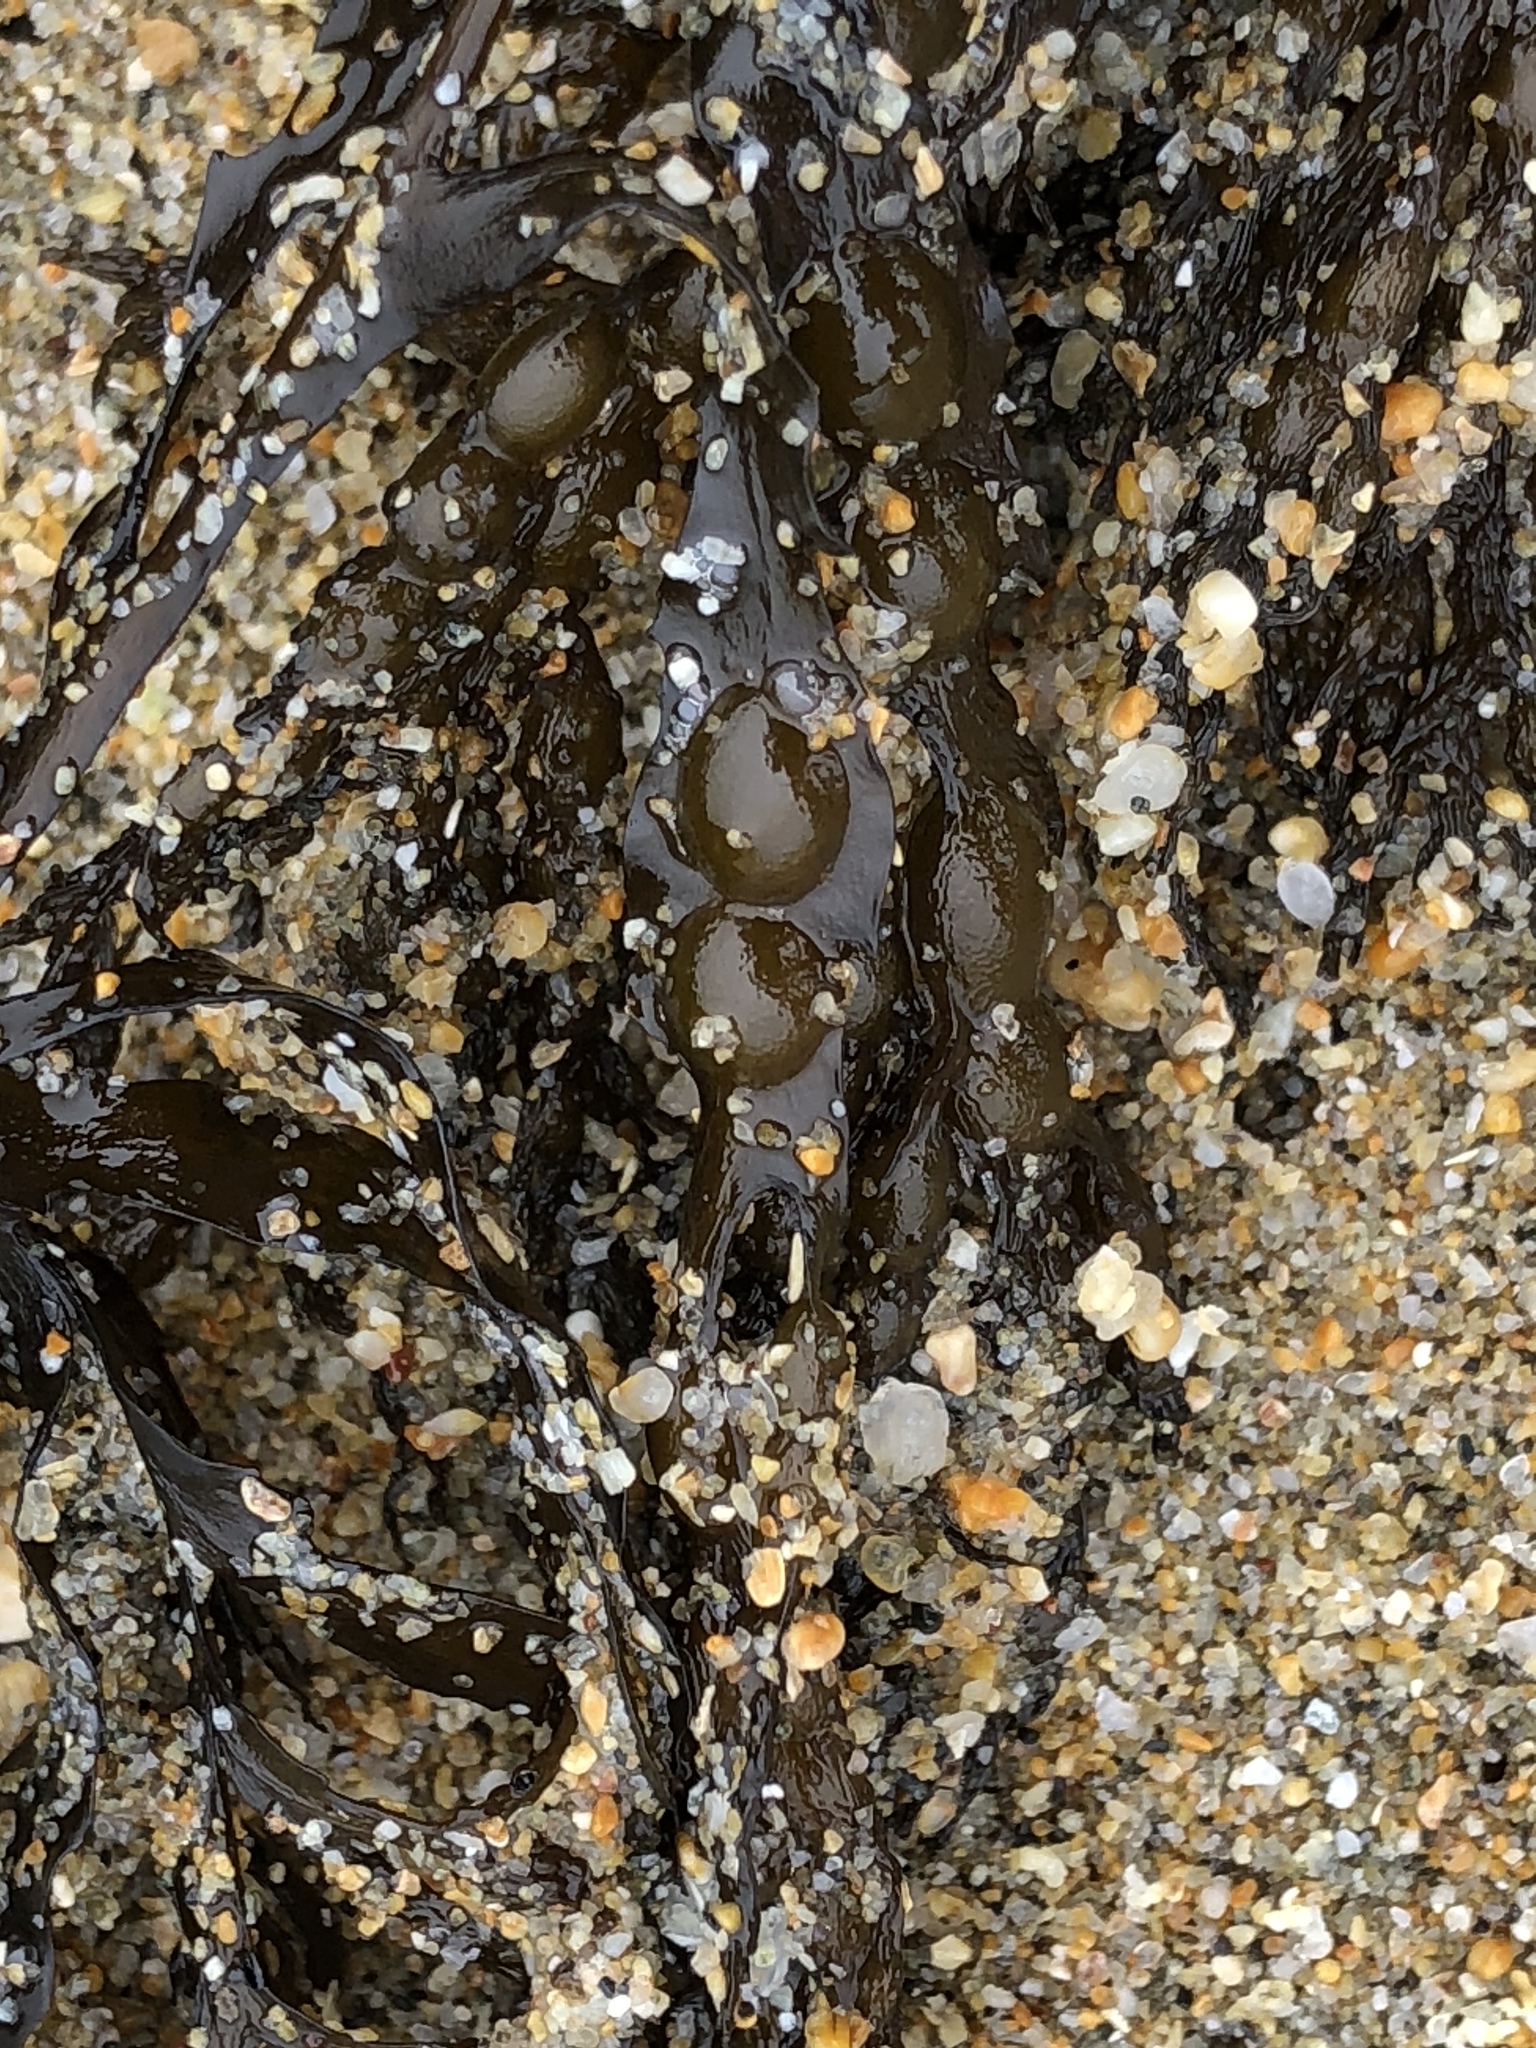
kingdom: Chromista
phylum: Ochrophyta
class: Phaeophyceae
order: Fucales
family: Sargassaceae
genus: Stephanocystis
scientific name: Stephanocystis
